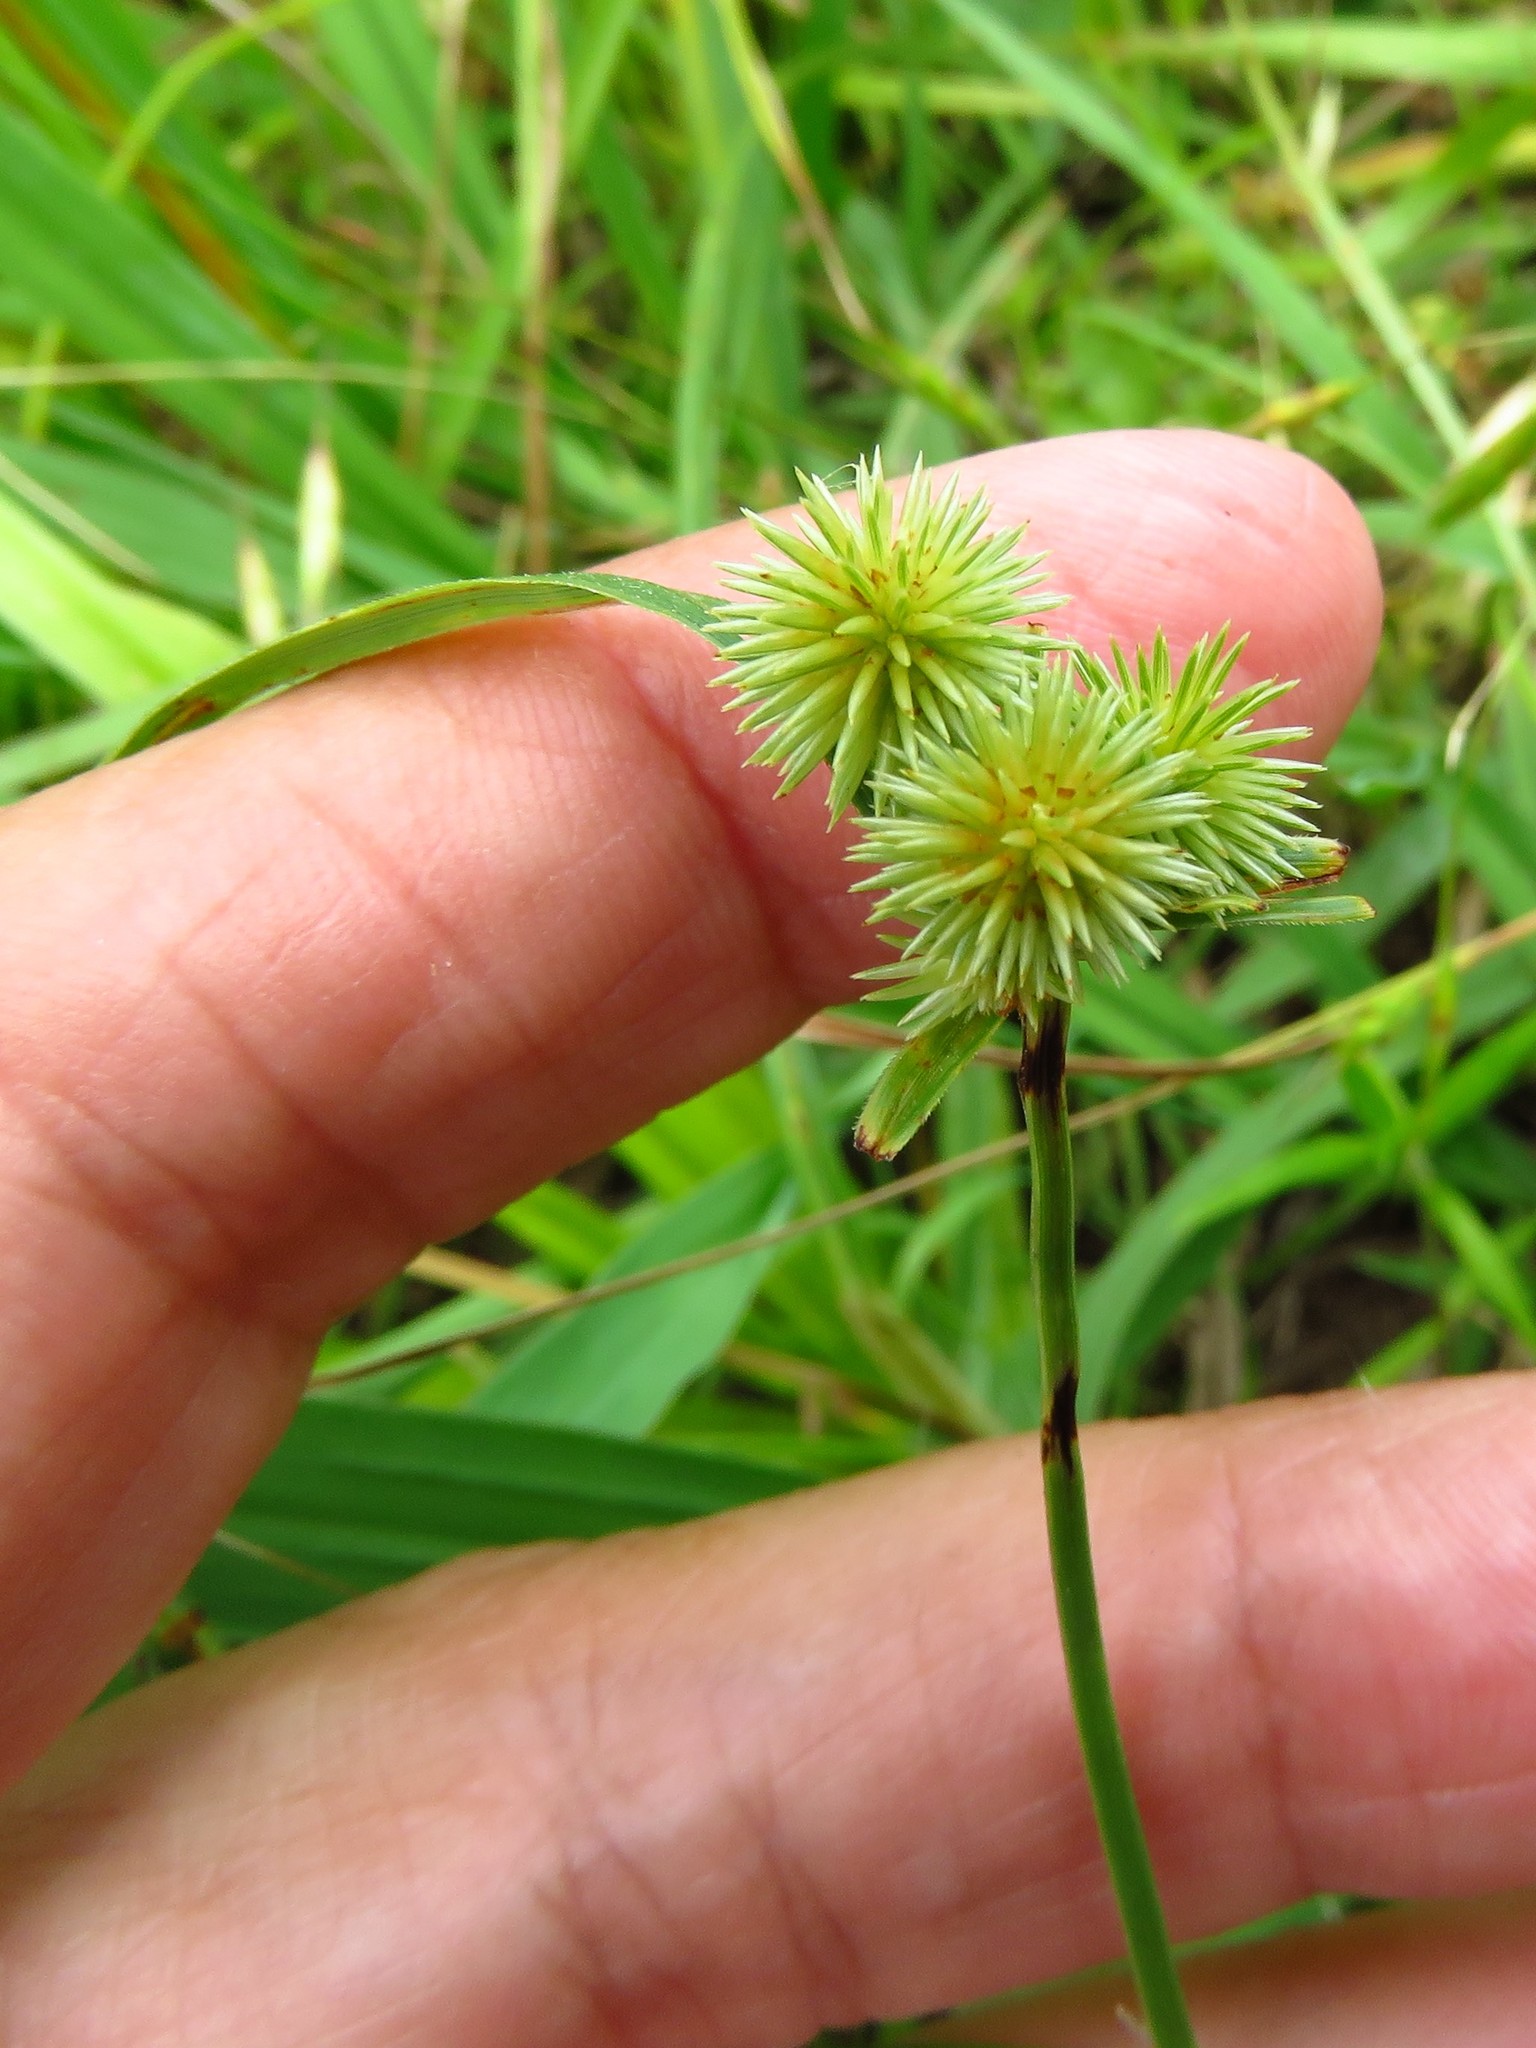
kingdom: Plantae
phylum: Tracheophyta
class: Liliopsida
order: Poales
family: Cyperaceae
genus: Cyperus
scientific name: Cyperus echinatus
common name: Teasel sedge
